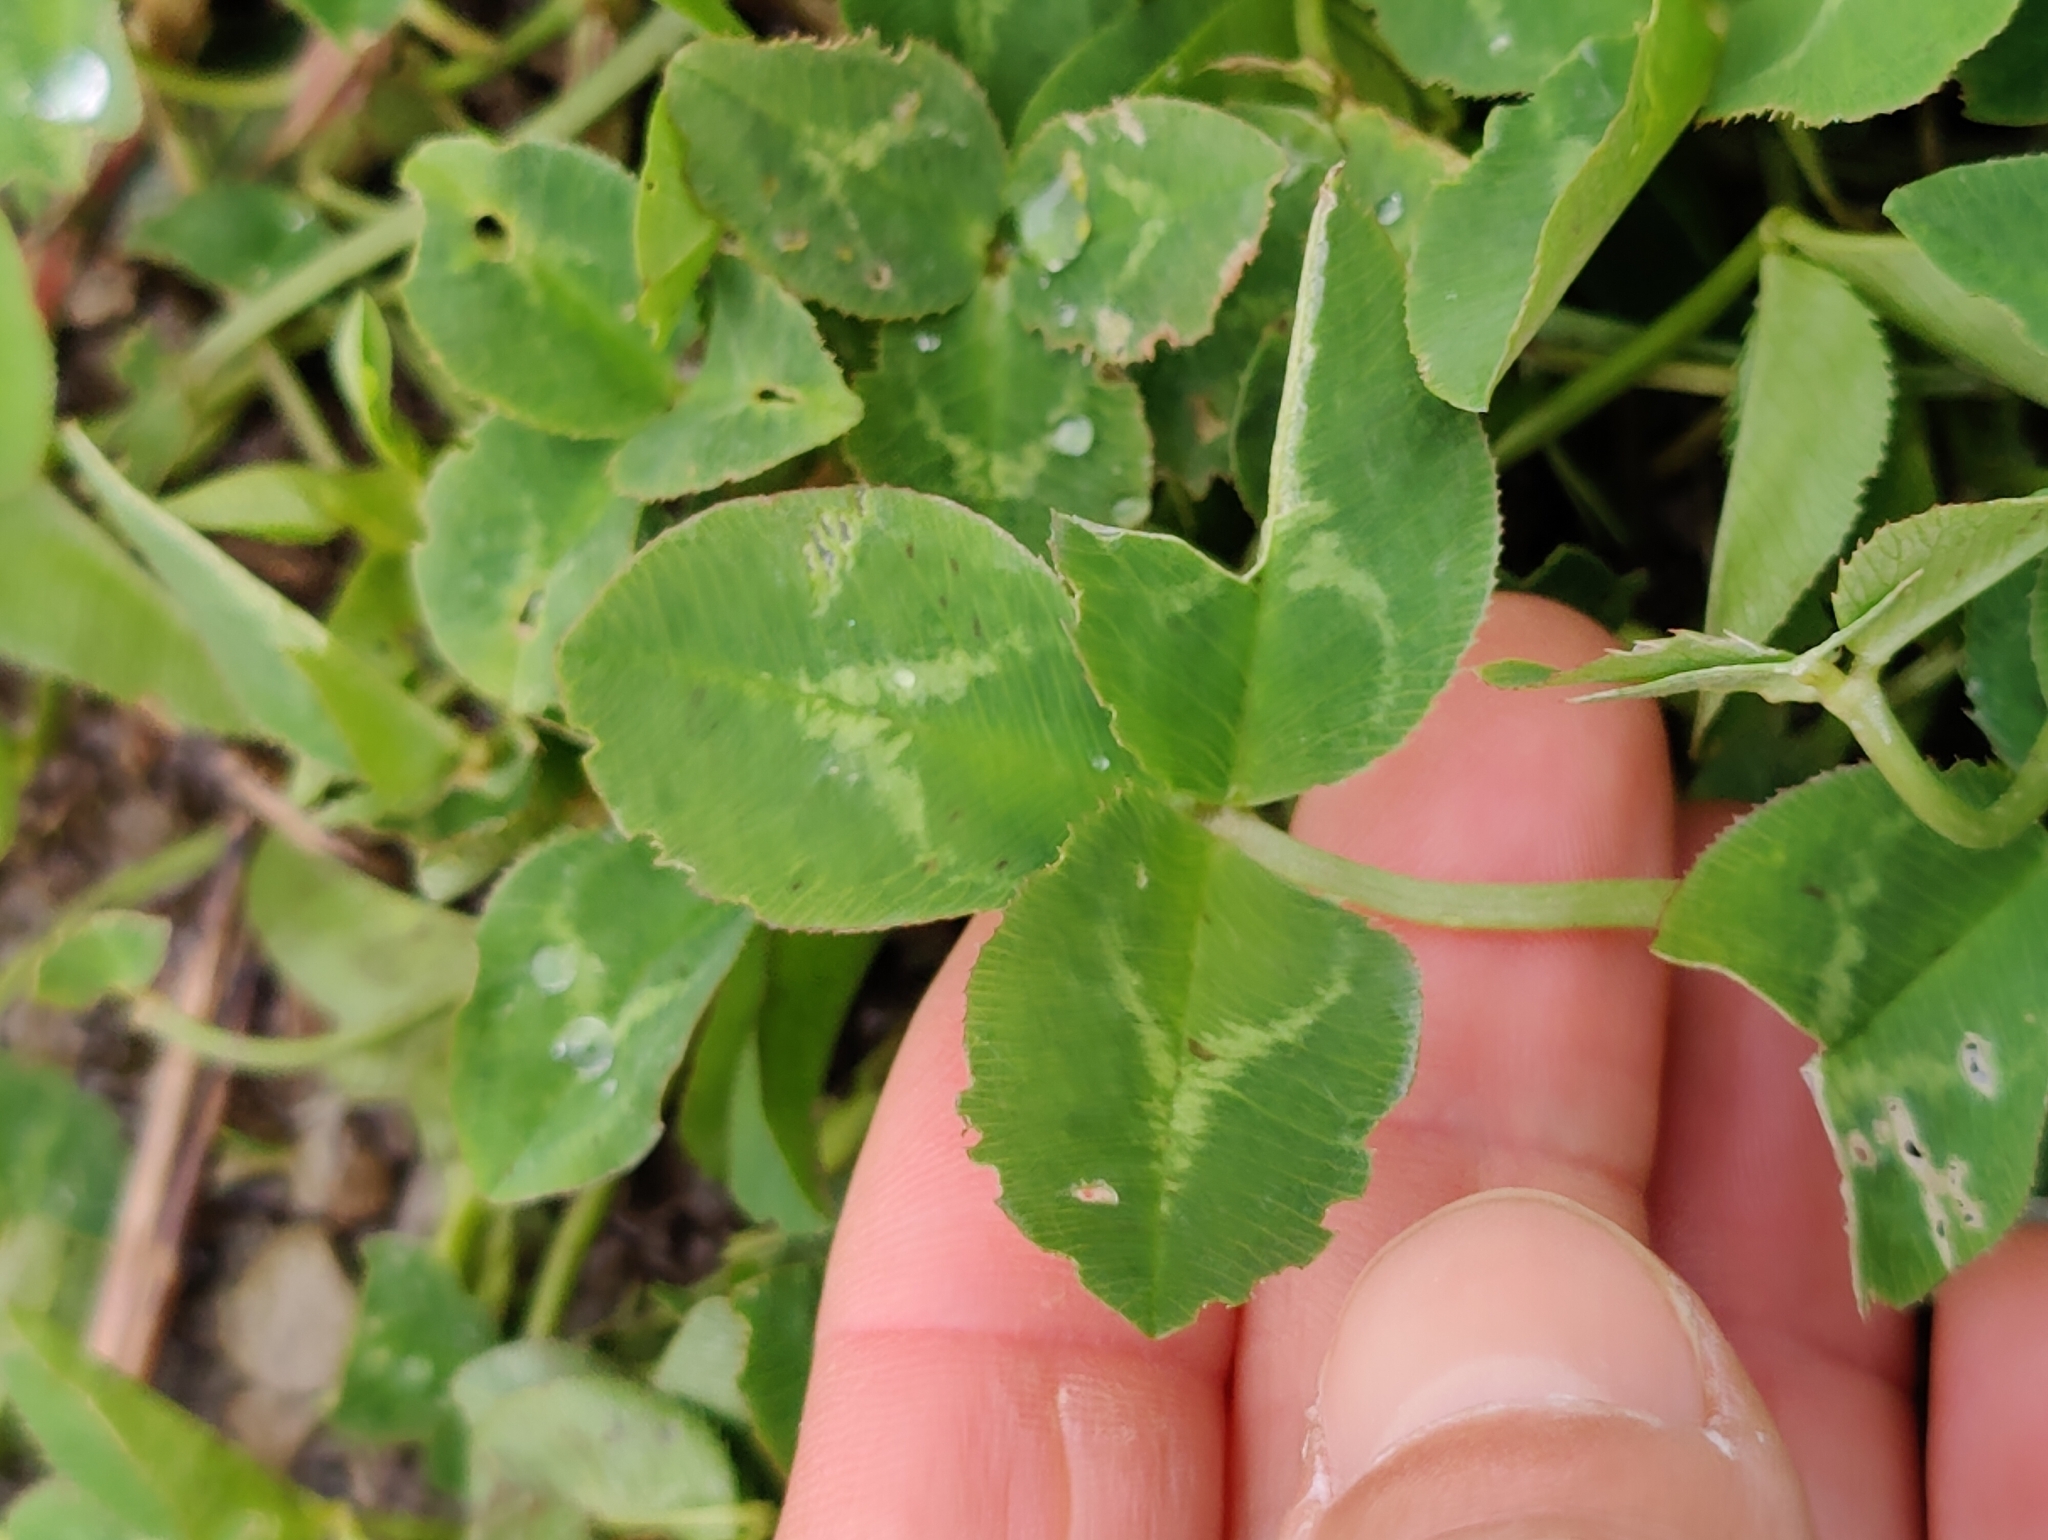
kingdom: Plantae
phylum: Tracheophyta
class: Magnoliopsida
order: Fabales
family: Fabaceae
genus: Trifolium
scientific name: Trifolium repens
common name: White clover
